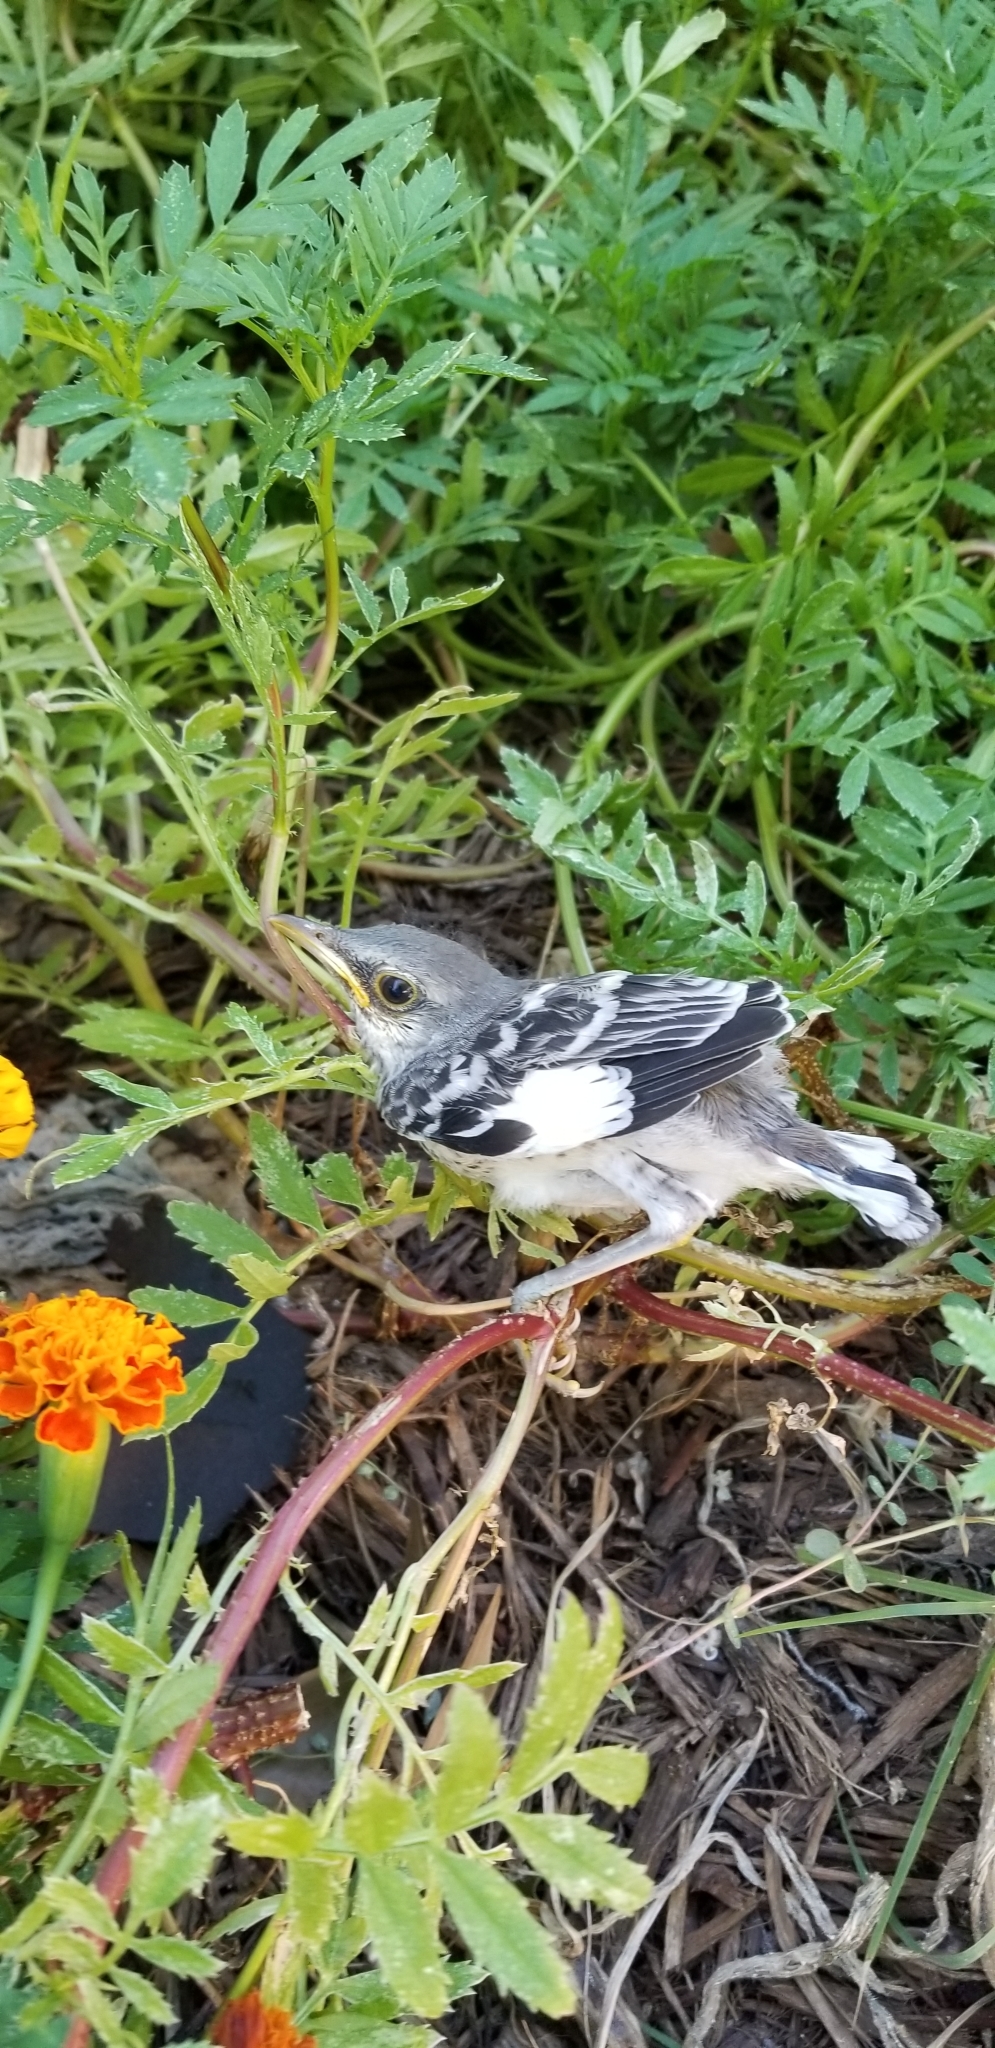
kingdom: Animalia
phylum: Chordata
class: Aves
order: Passeriformes
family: Mimidae
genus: Mimus
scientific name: Mimus polyglottos
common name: Northern mockingbird
